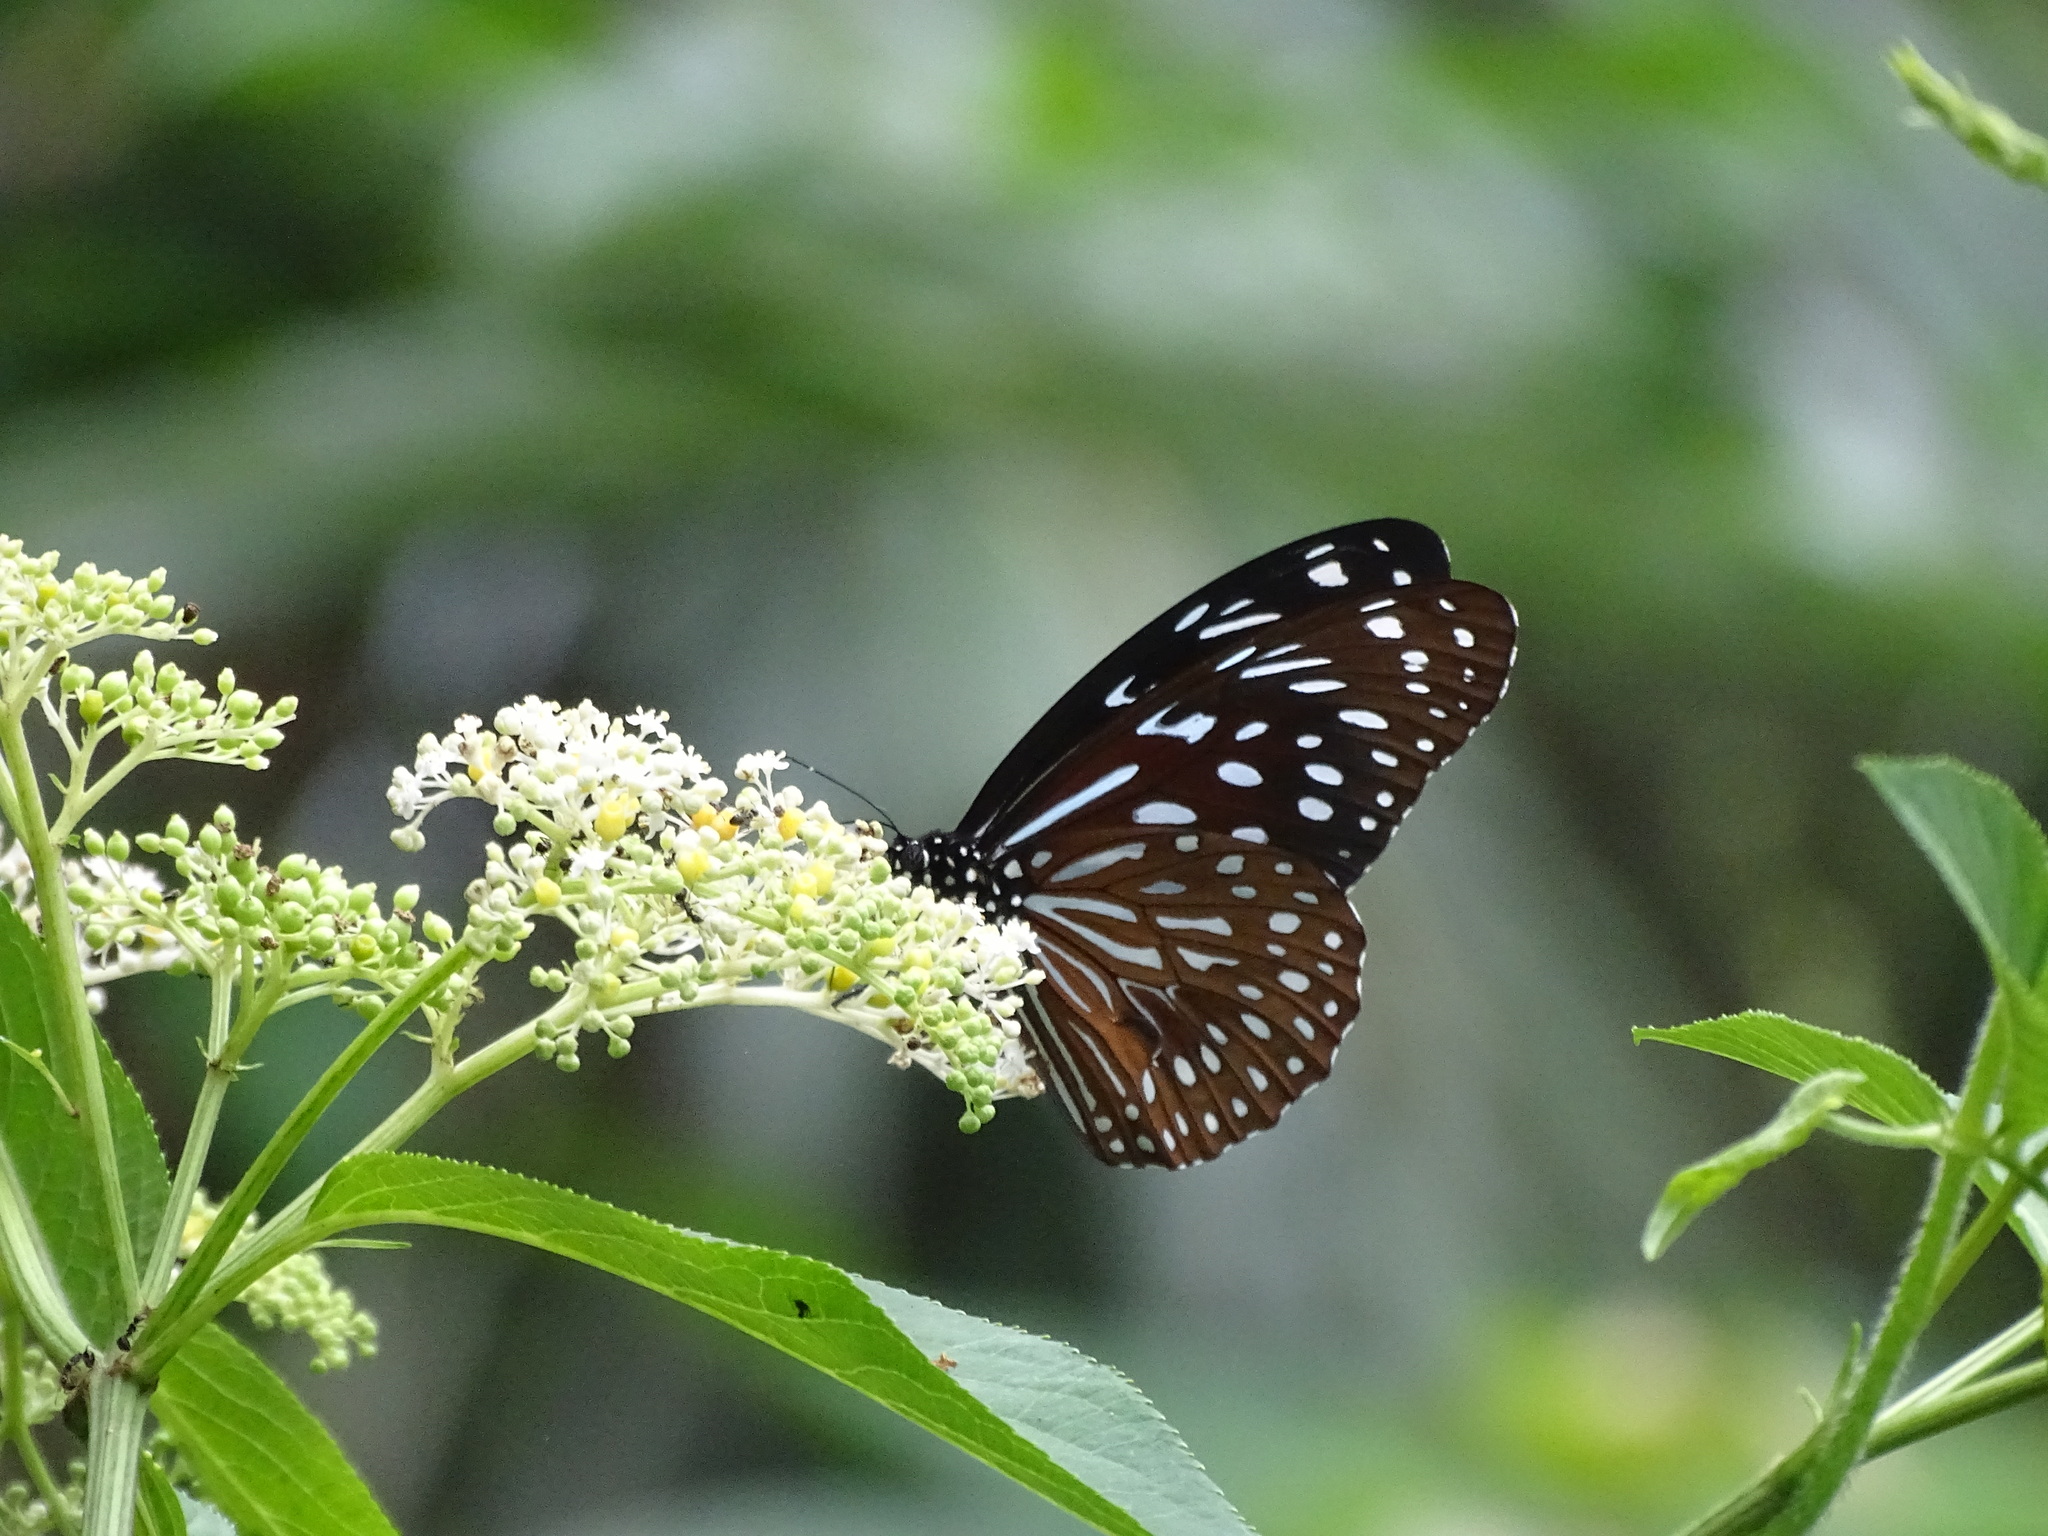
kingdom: Animalia
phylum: Arthropoda
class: Insecta
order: Lepidoptera
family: Nymphalidae
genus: Tirumala
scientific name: Tirumala septentrionis
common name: Dark blue tiger butterfly
